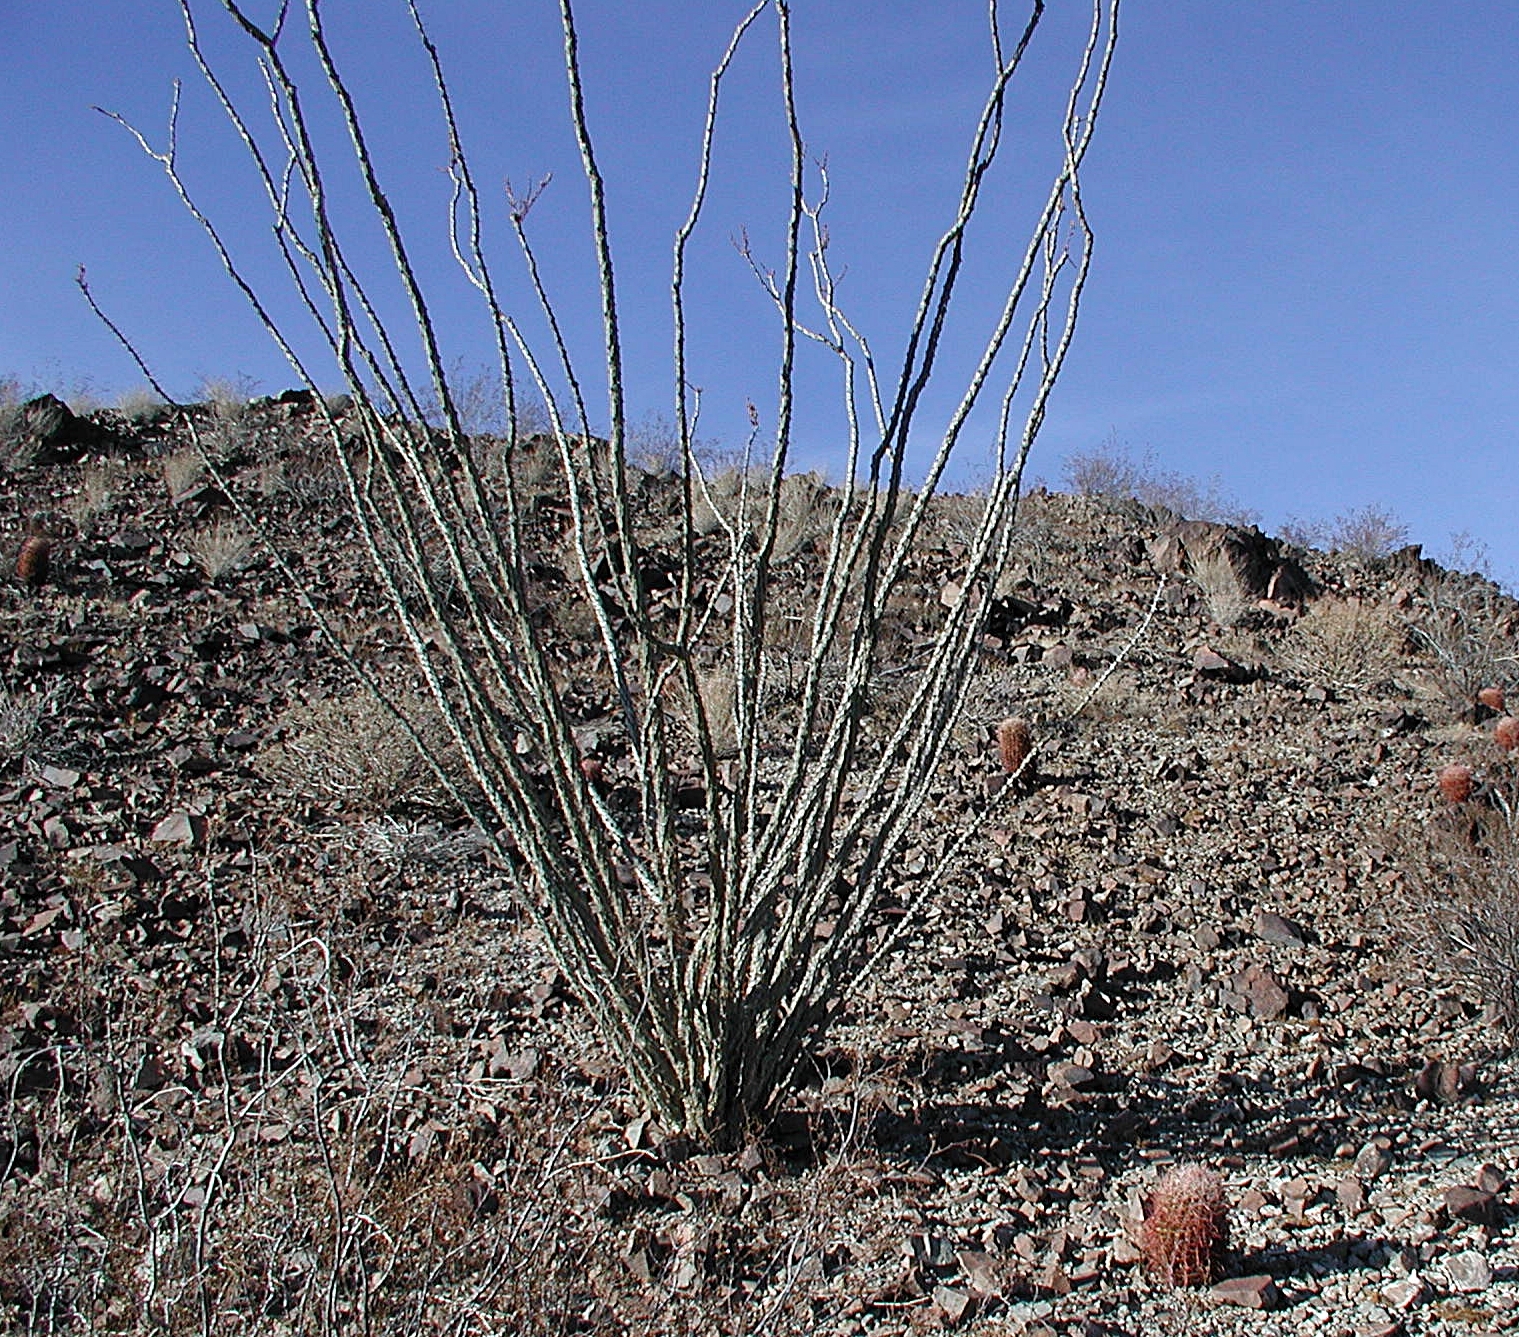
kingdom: Plantae
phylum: Tracheophyta
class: Magnoliopsida
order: Ericales
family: Fouquieriaceae
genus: Fouquieria
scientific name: Fouquieria splendens
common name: Vine-cactus
